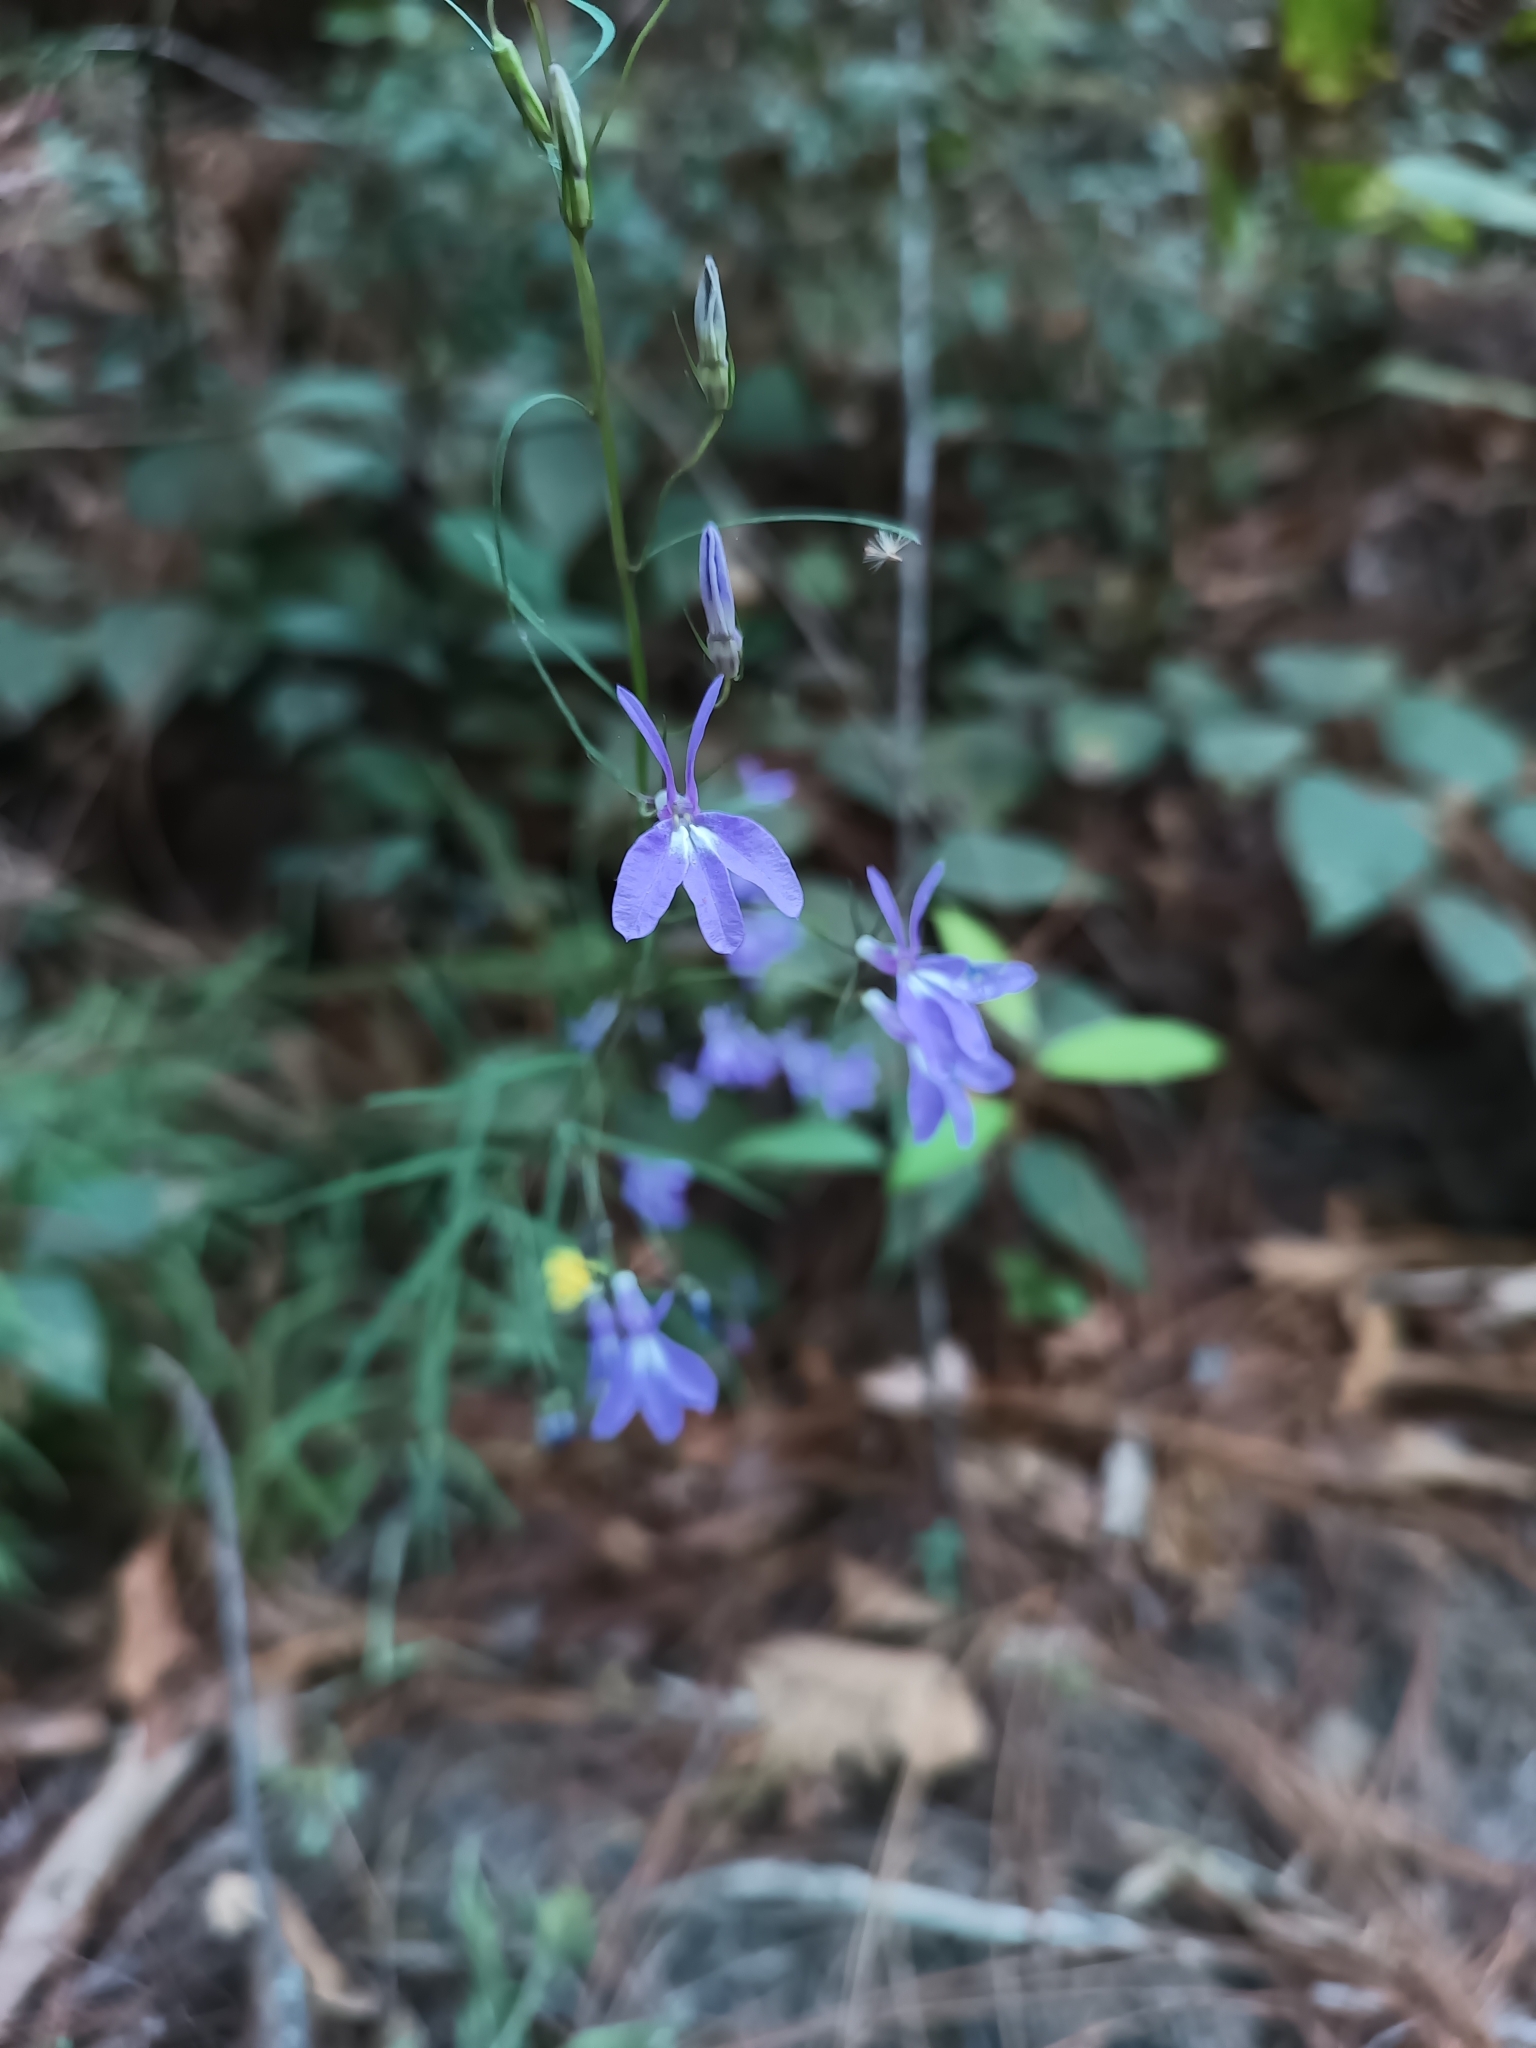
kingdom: Plantae
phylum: Tracheophyta
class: Magnoliopsida
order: Asterales
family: Campanulaceae
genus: Lobelia
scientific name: Lobelia occidentalis
